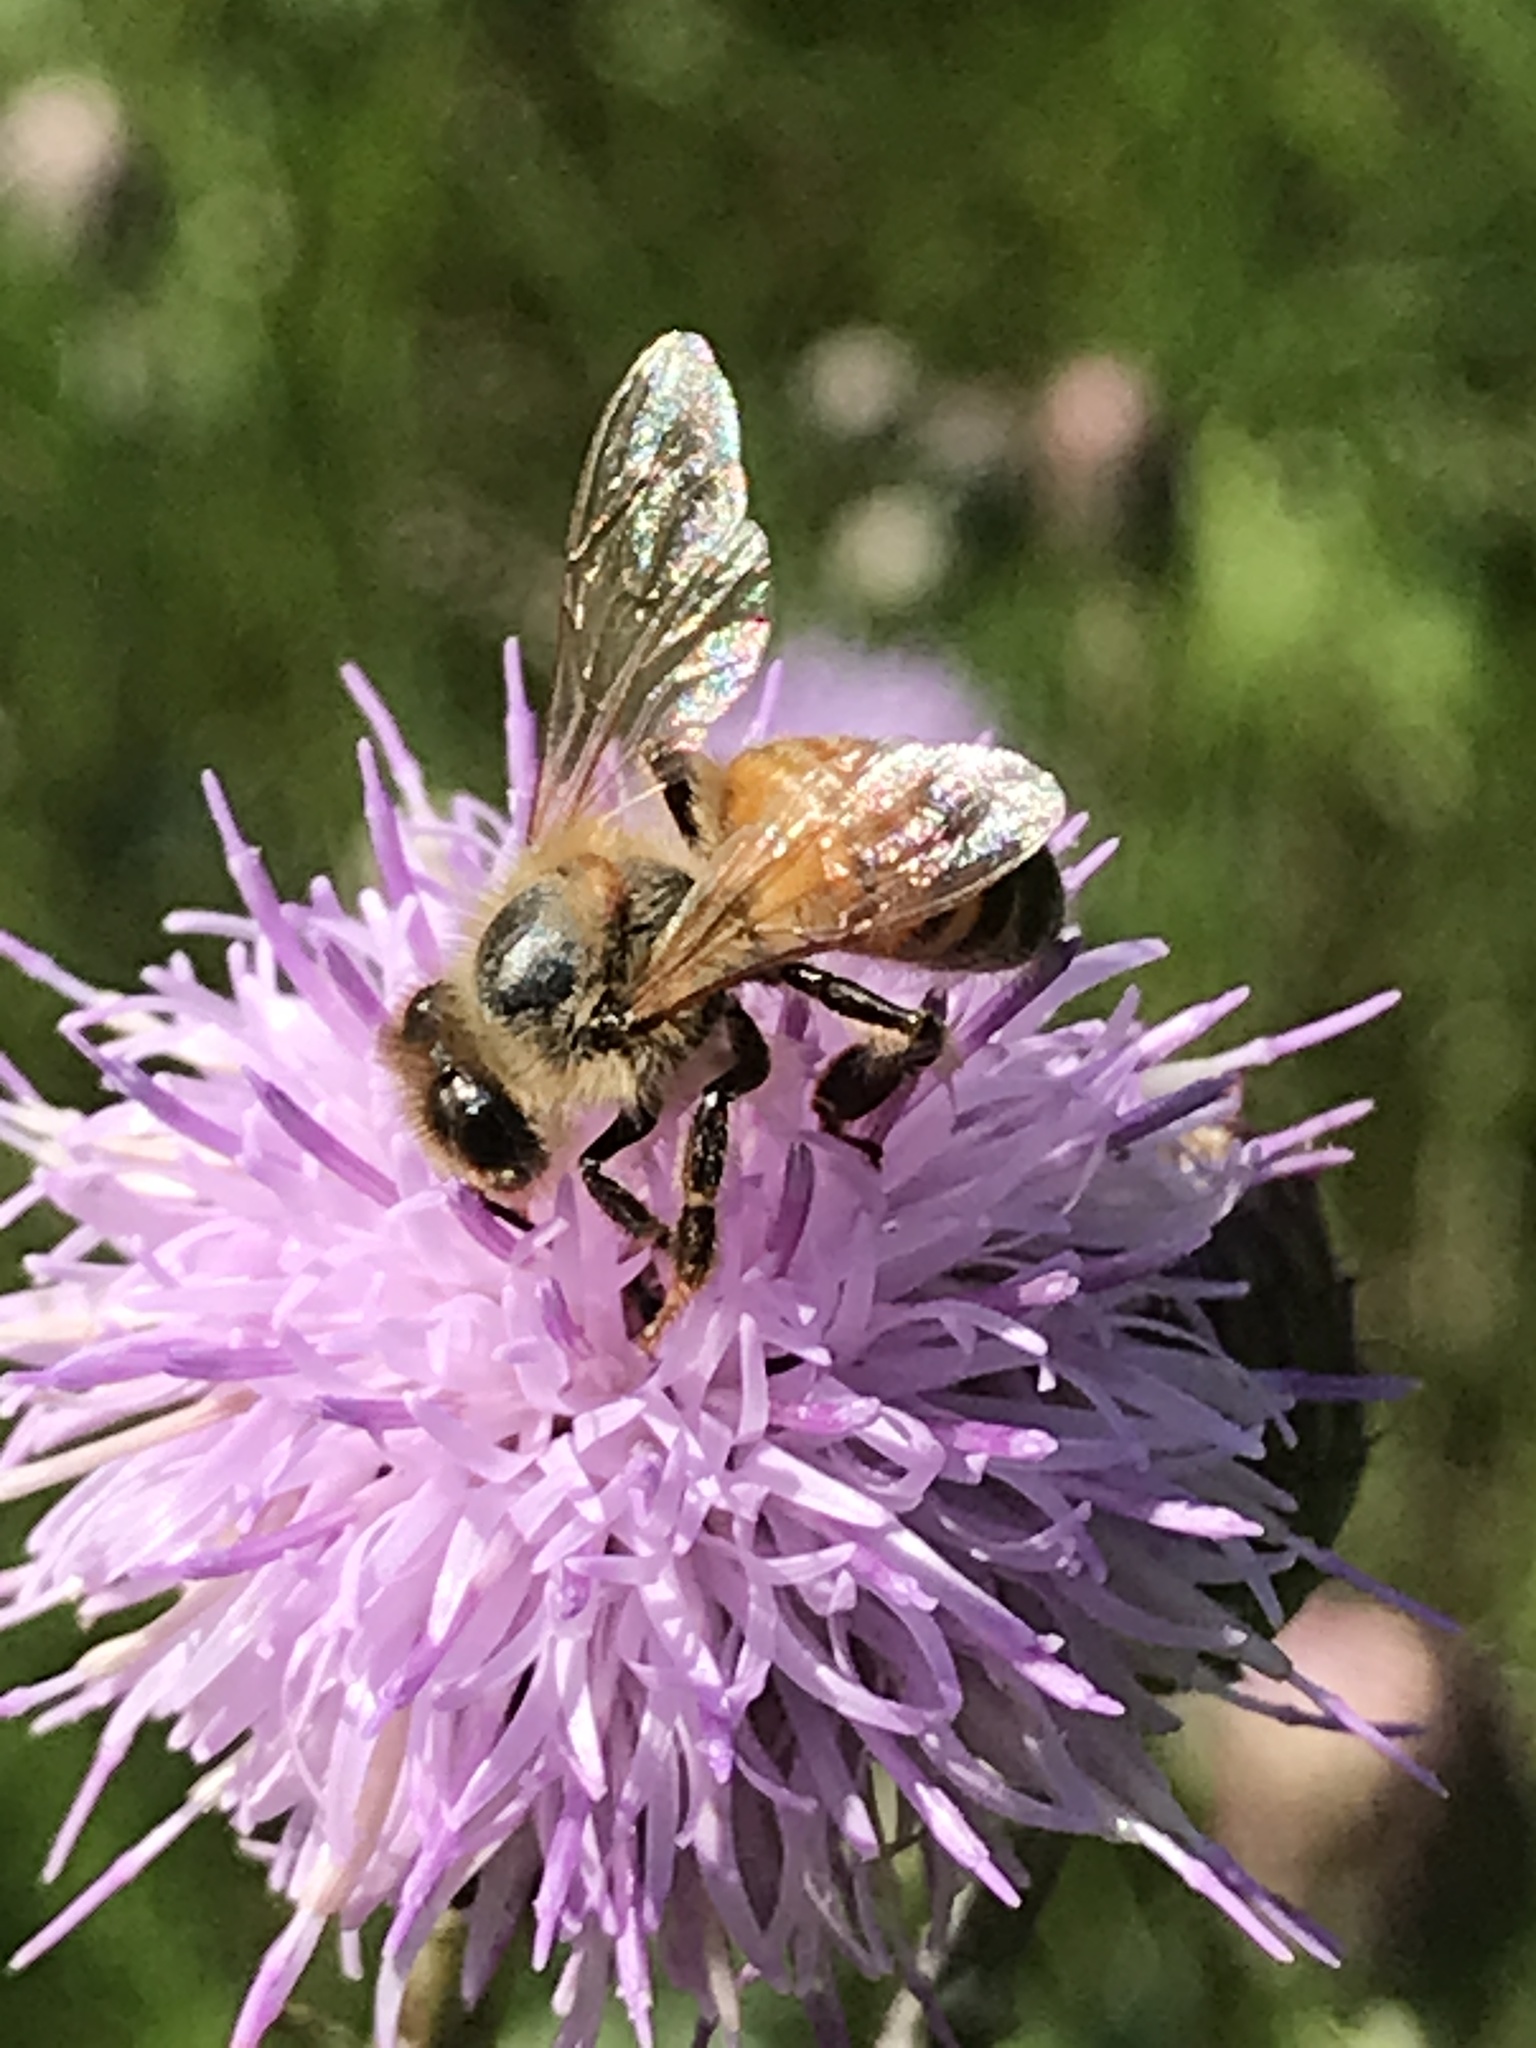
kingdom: Animalia
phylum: Arthropoda
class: Insecta
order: Hymenoptera
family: Apidae
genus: Apis
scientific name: Apis mellifera
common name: Honey bee
